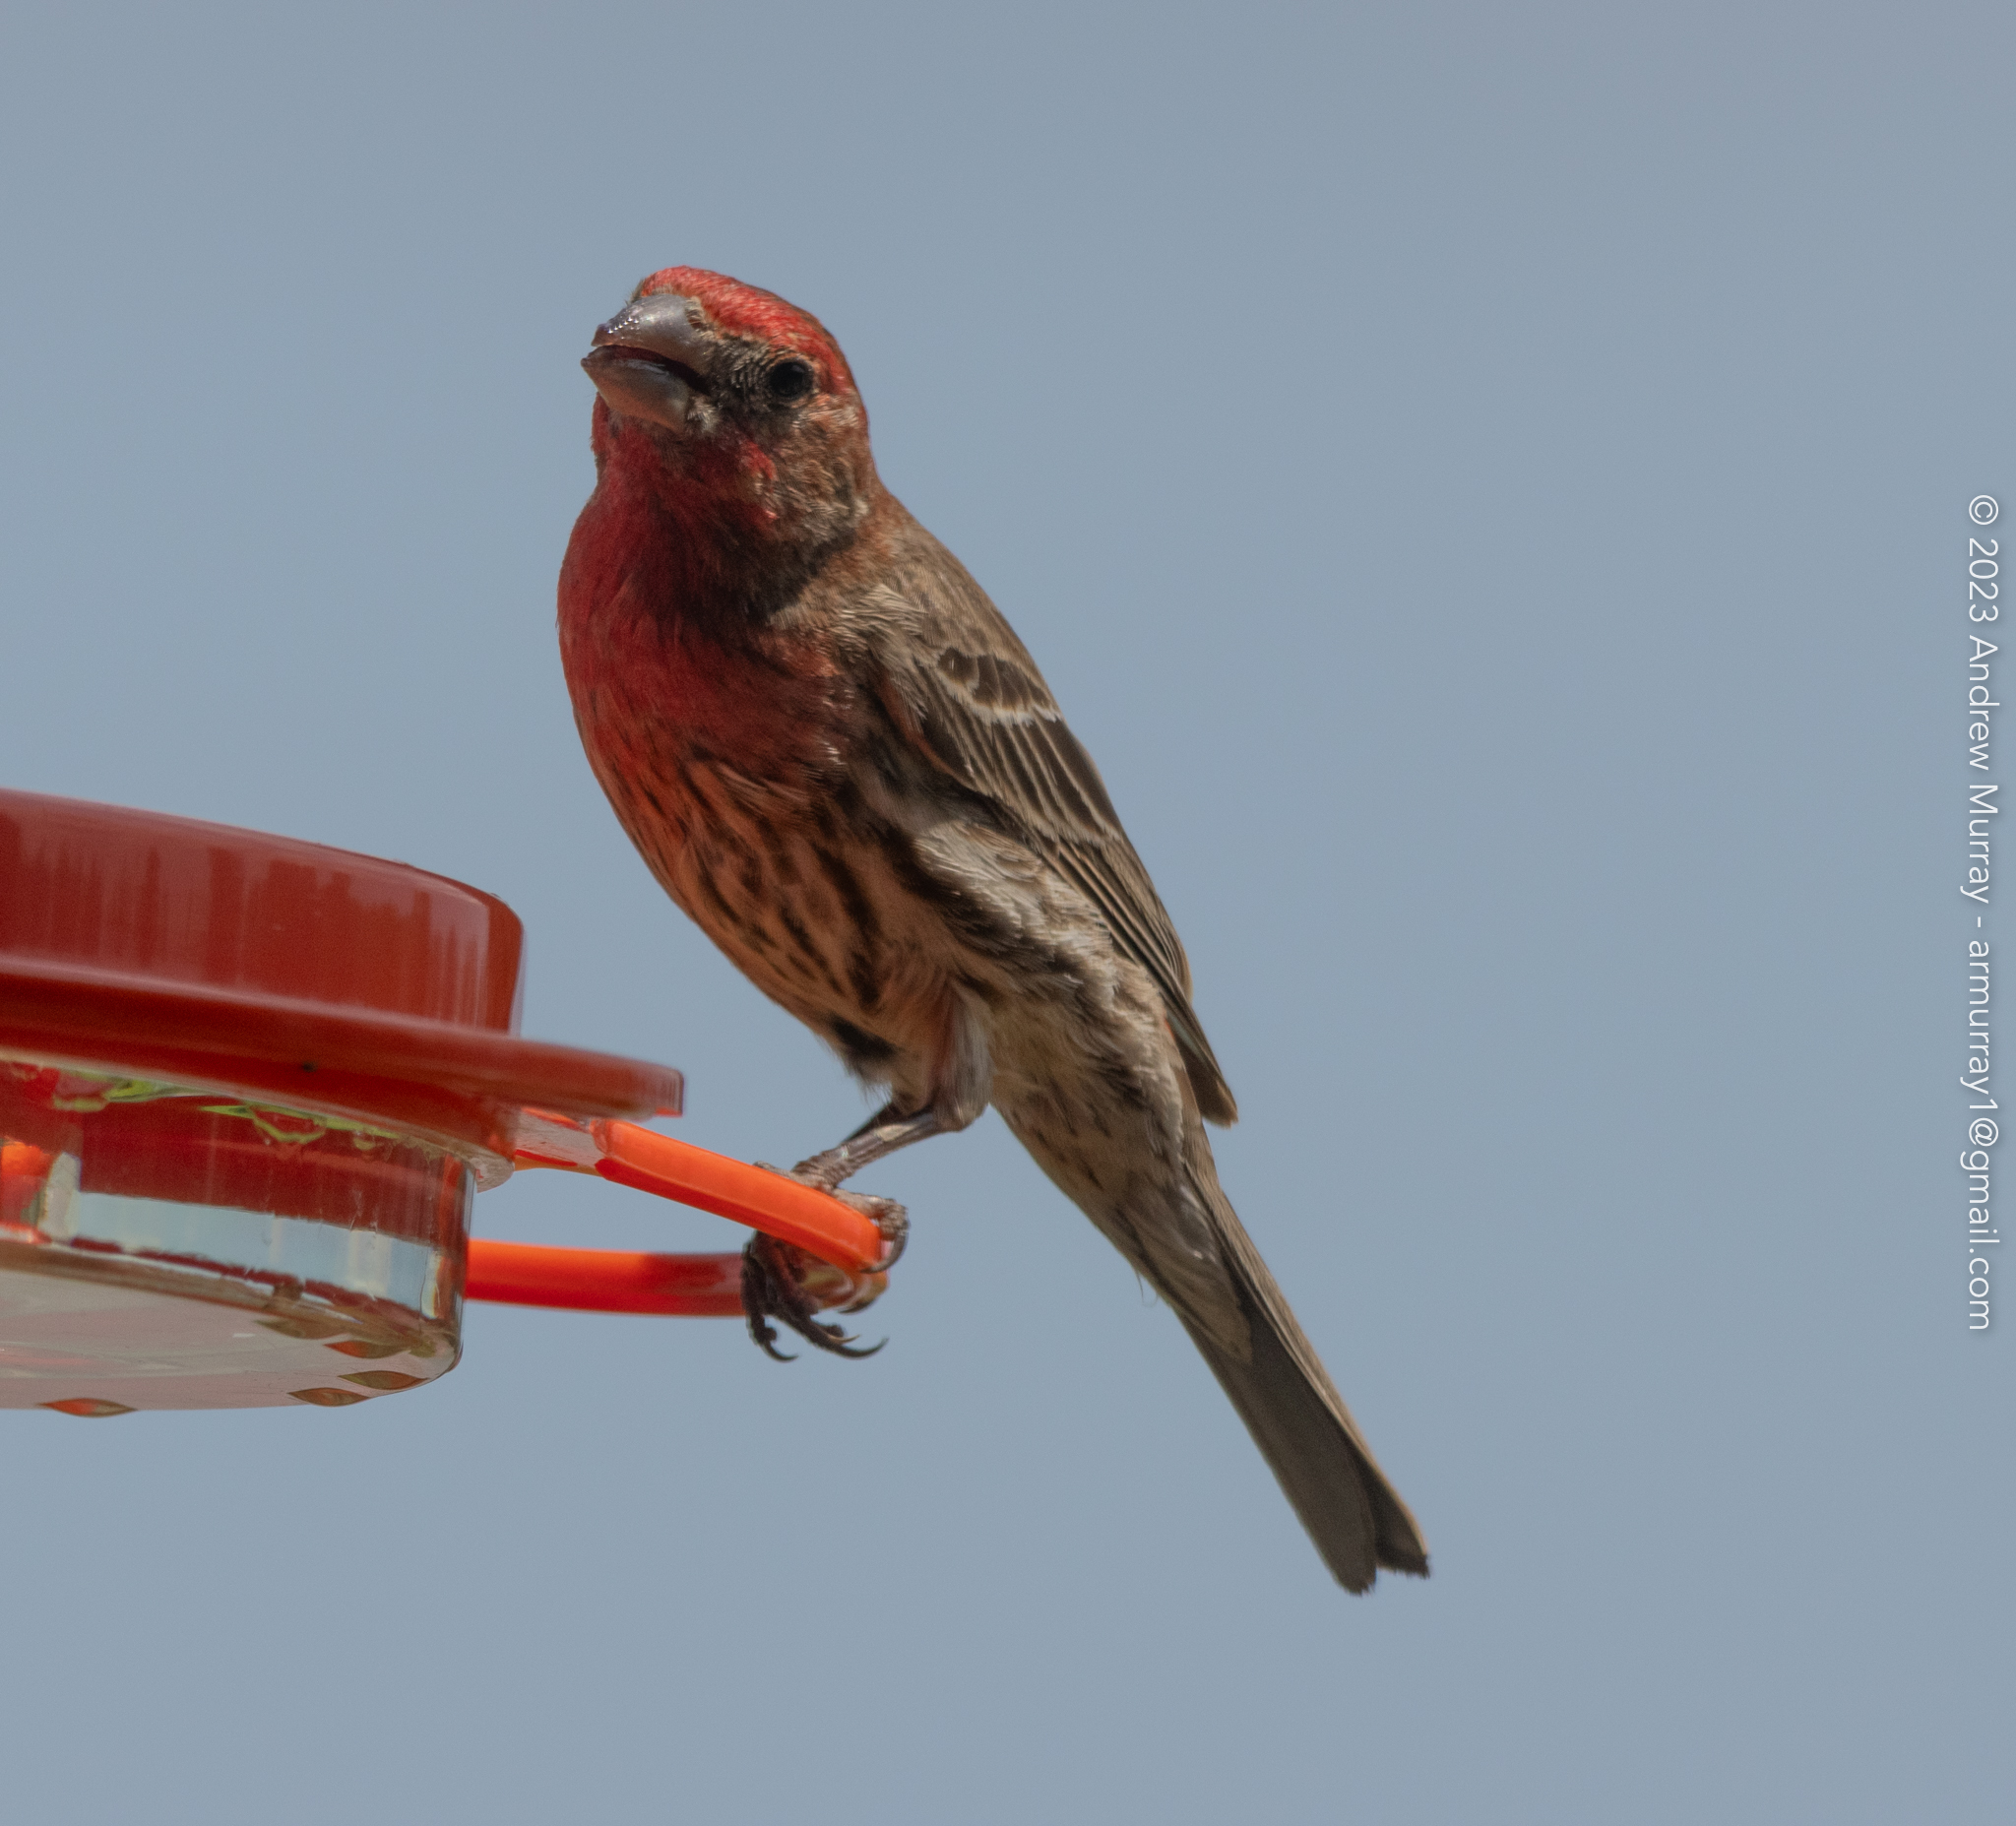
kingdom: Animalia
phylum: Chordata
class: Aves
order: Passeriformes
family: Fringillidae
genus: Haemorhous
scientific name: Haemorhous mexicanus
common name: House finch
